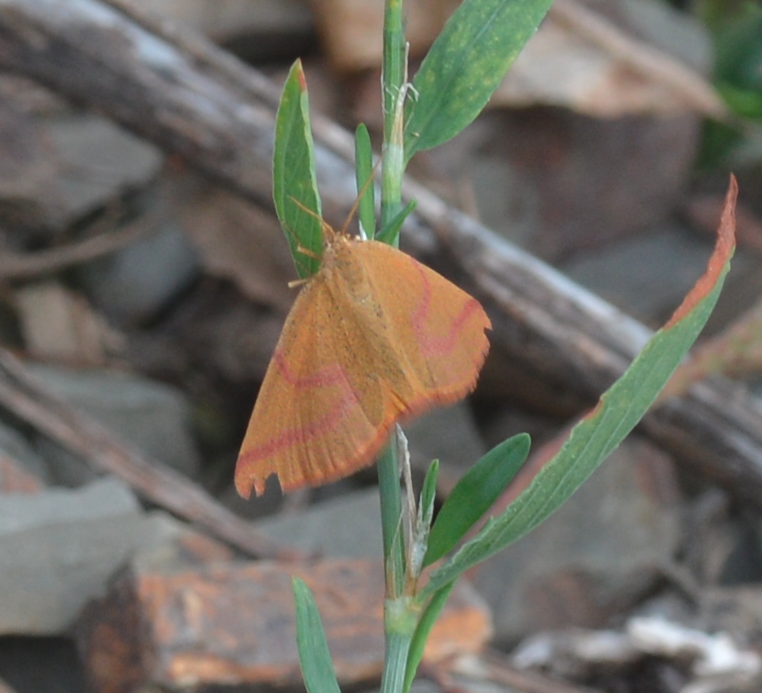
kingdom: Animalia
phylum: Arthropoda
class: Insecta
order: Lepidoptera
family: Geometridae
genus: Lythria
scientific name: Lythria purpuraria
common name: Purple-barred yellow
